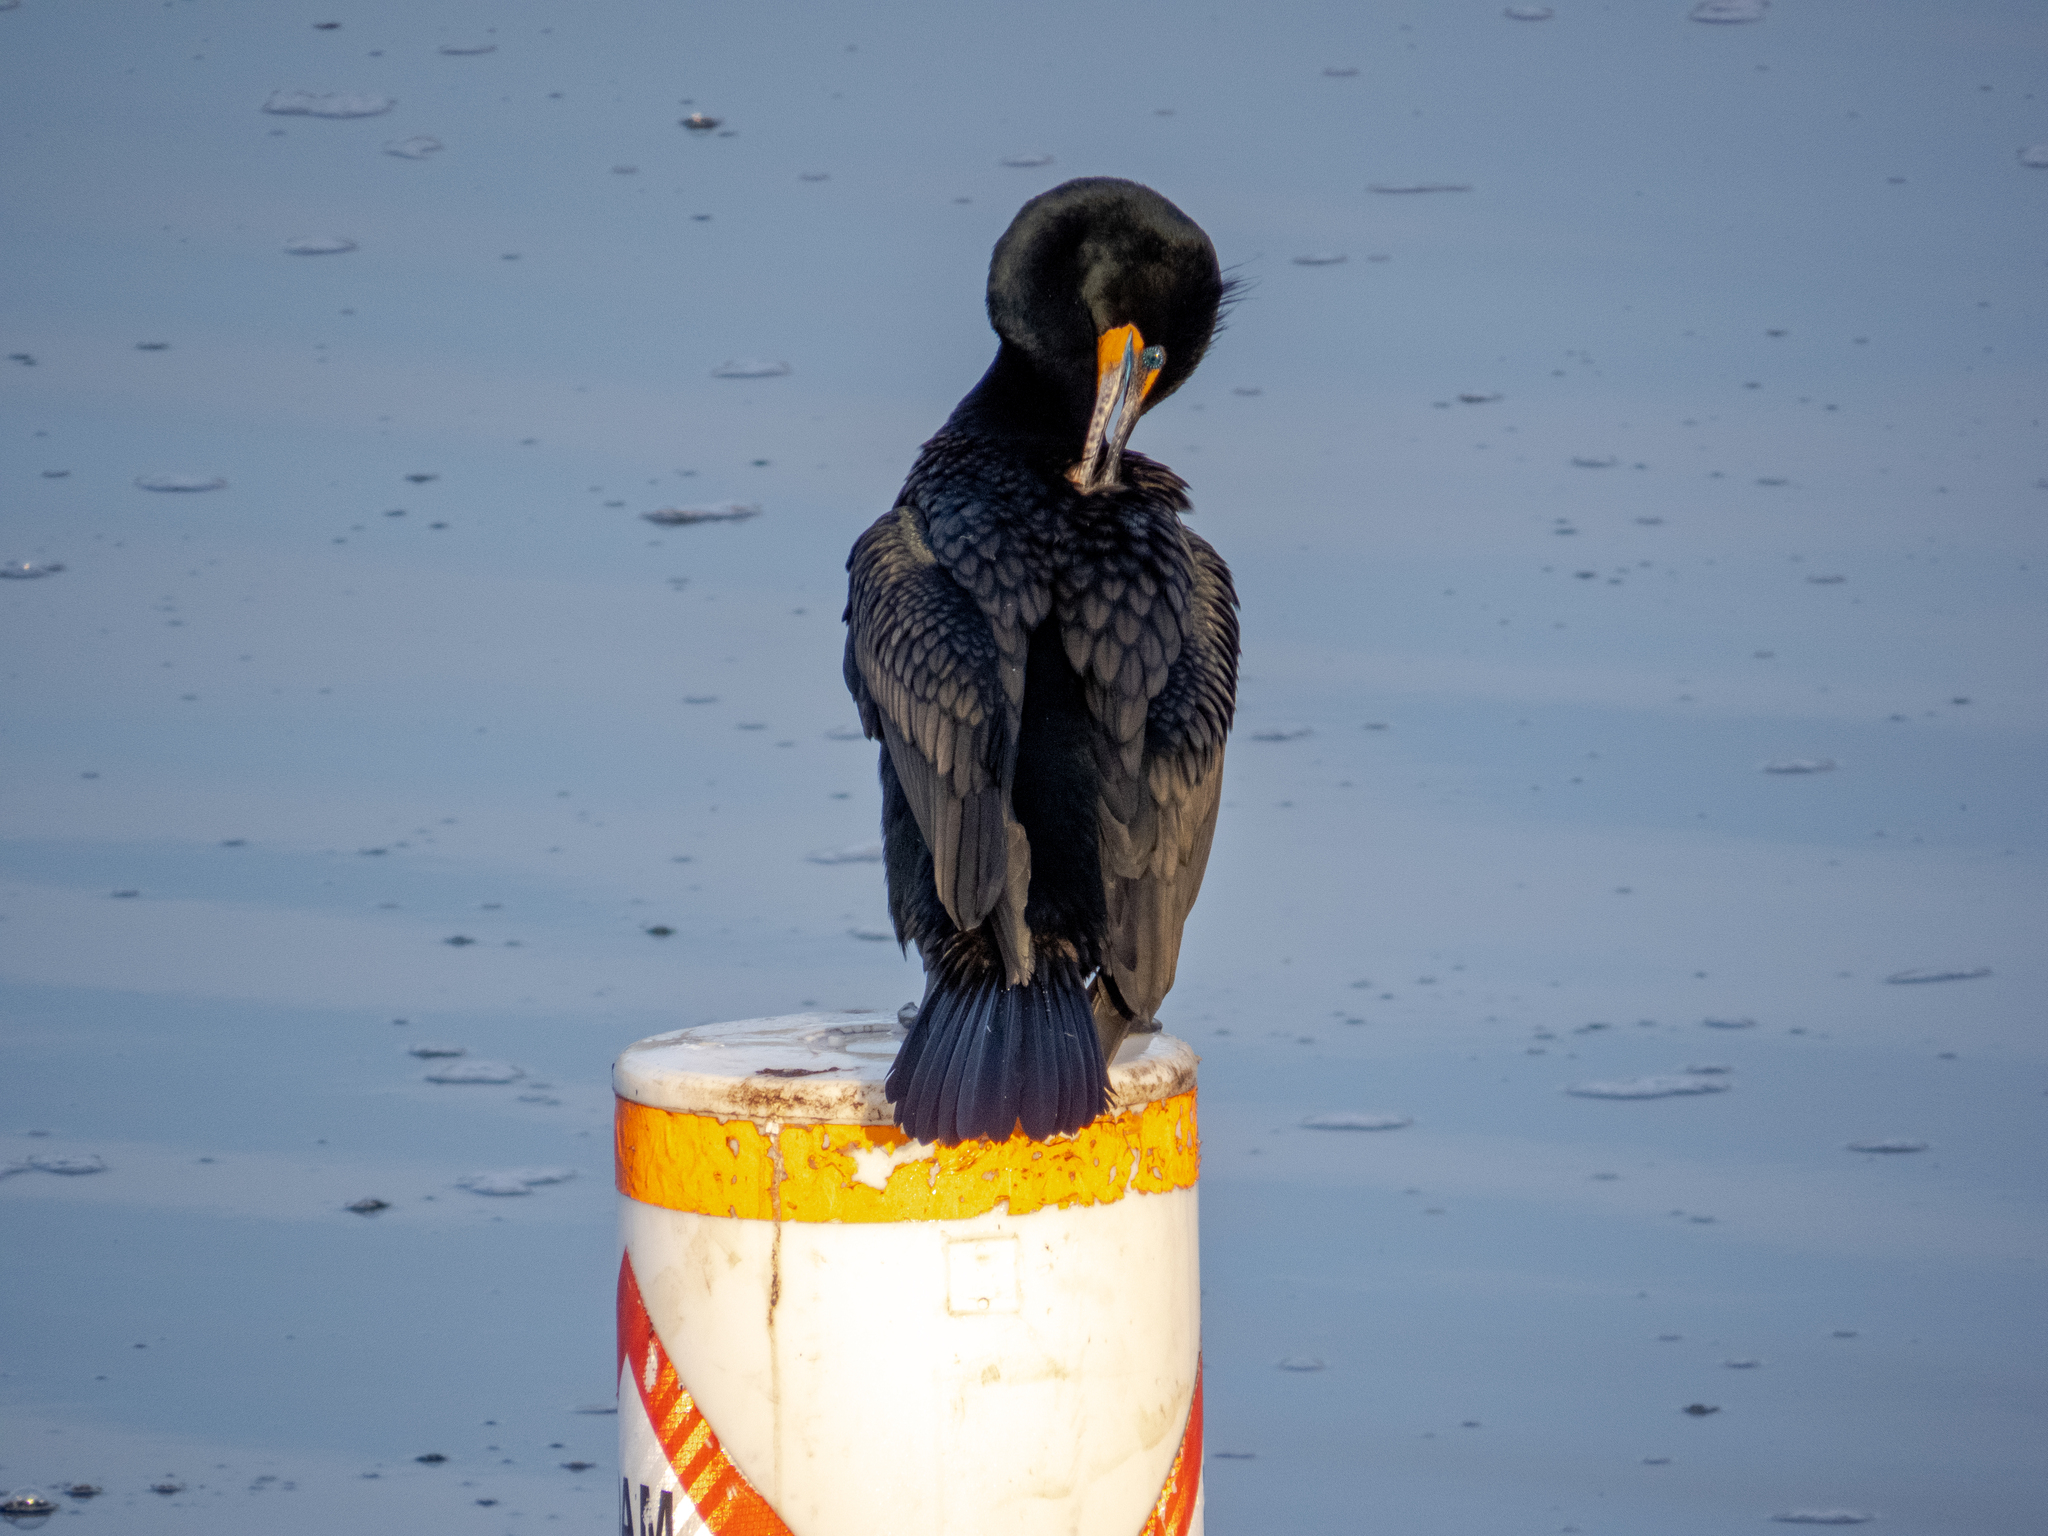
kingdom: Animalia
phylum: Chordata
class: Aves
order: Suliformes
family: Phalacrocoracidae
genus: Phalacrocorax
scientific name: Phalacrocorax auritus
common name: Double-crested cormorant
